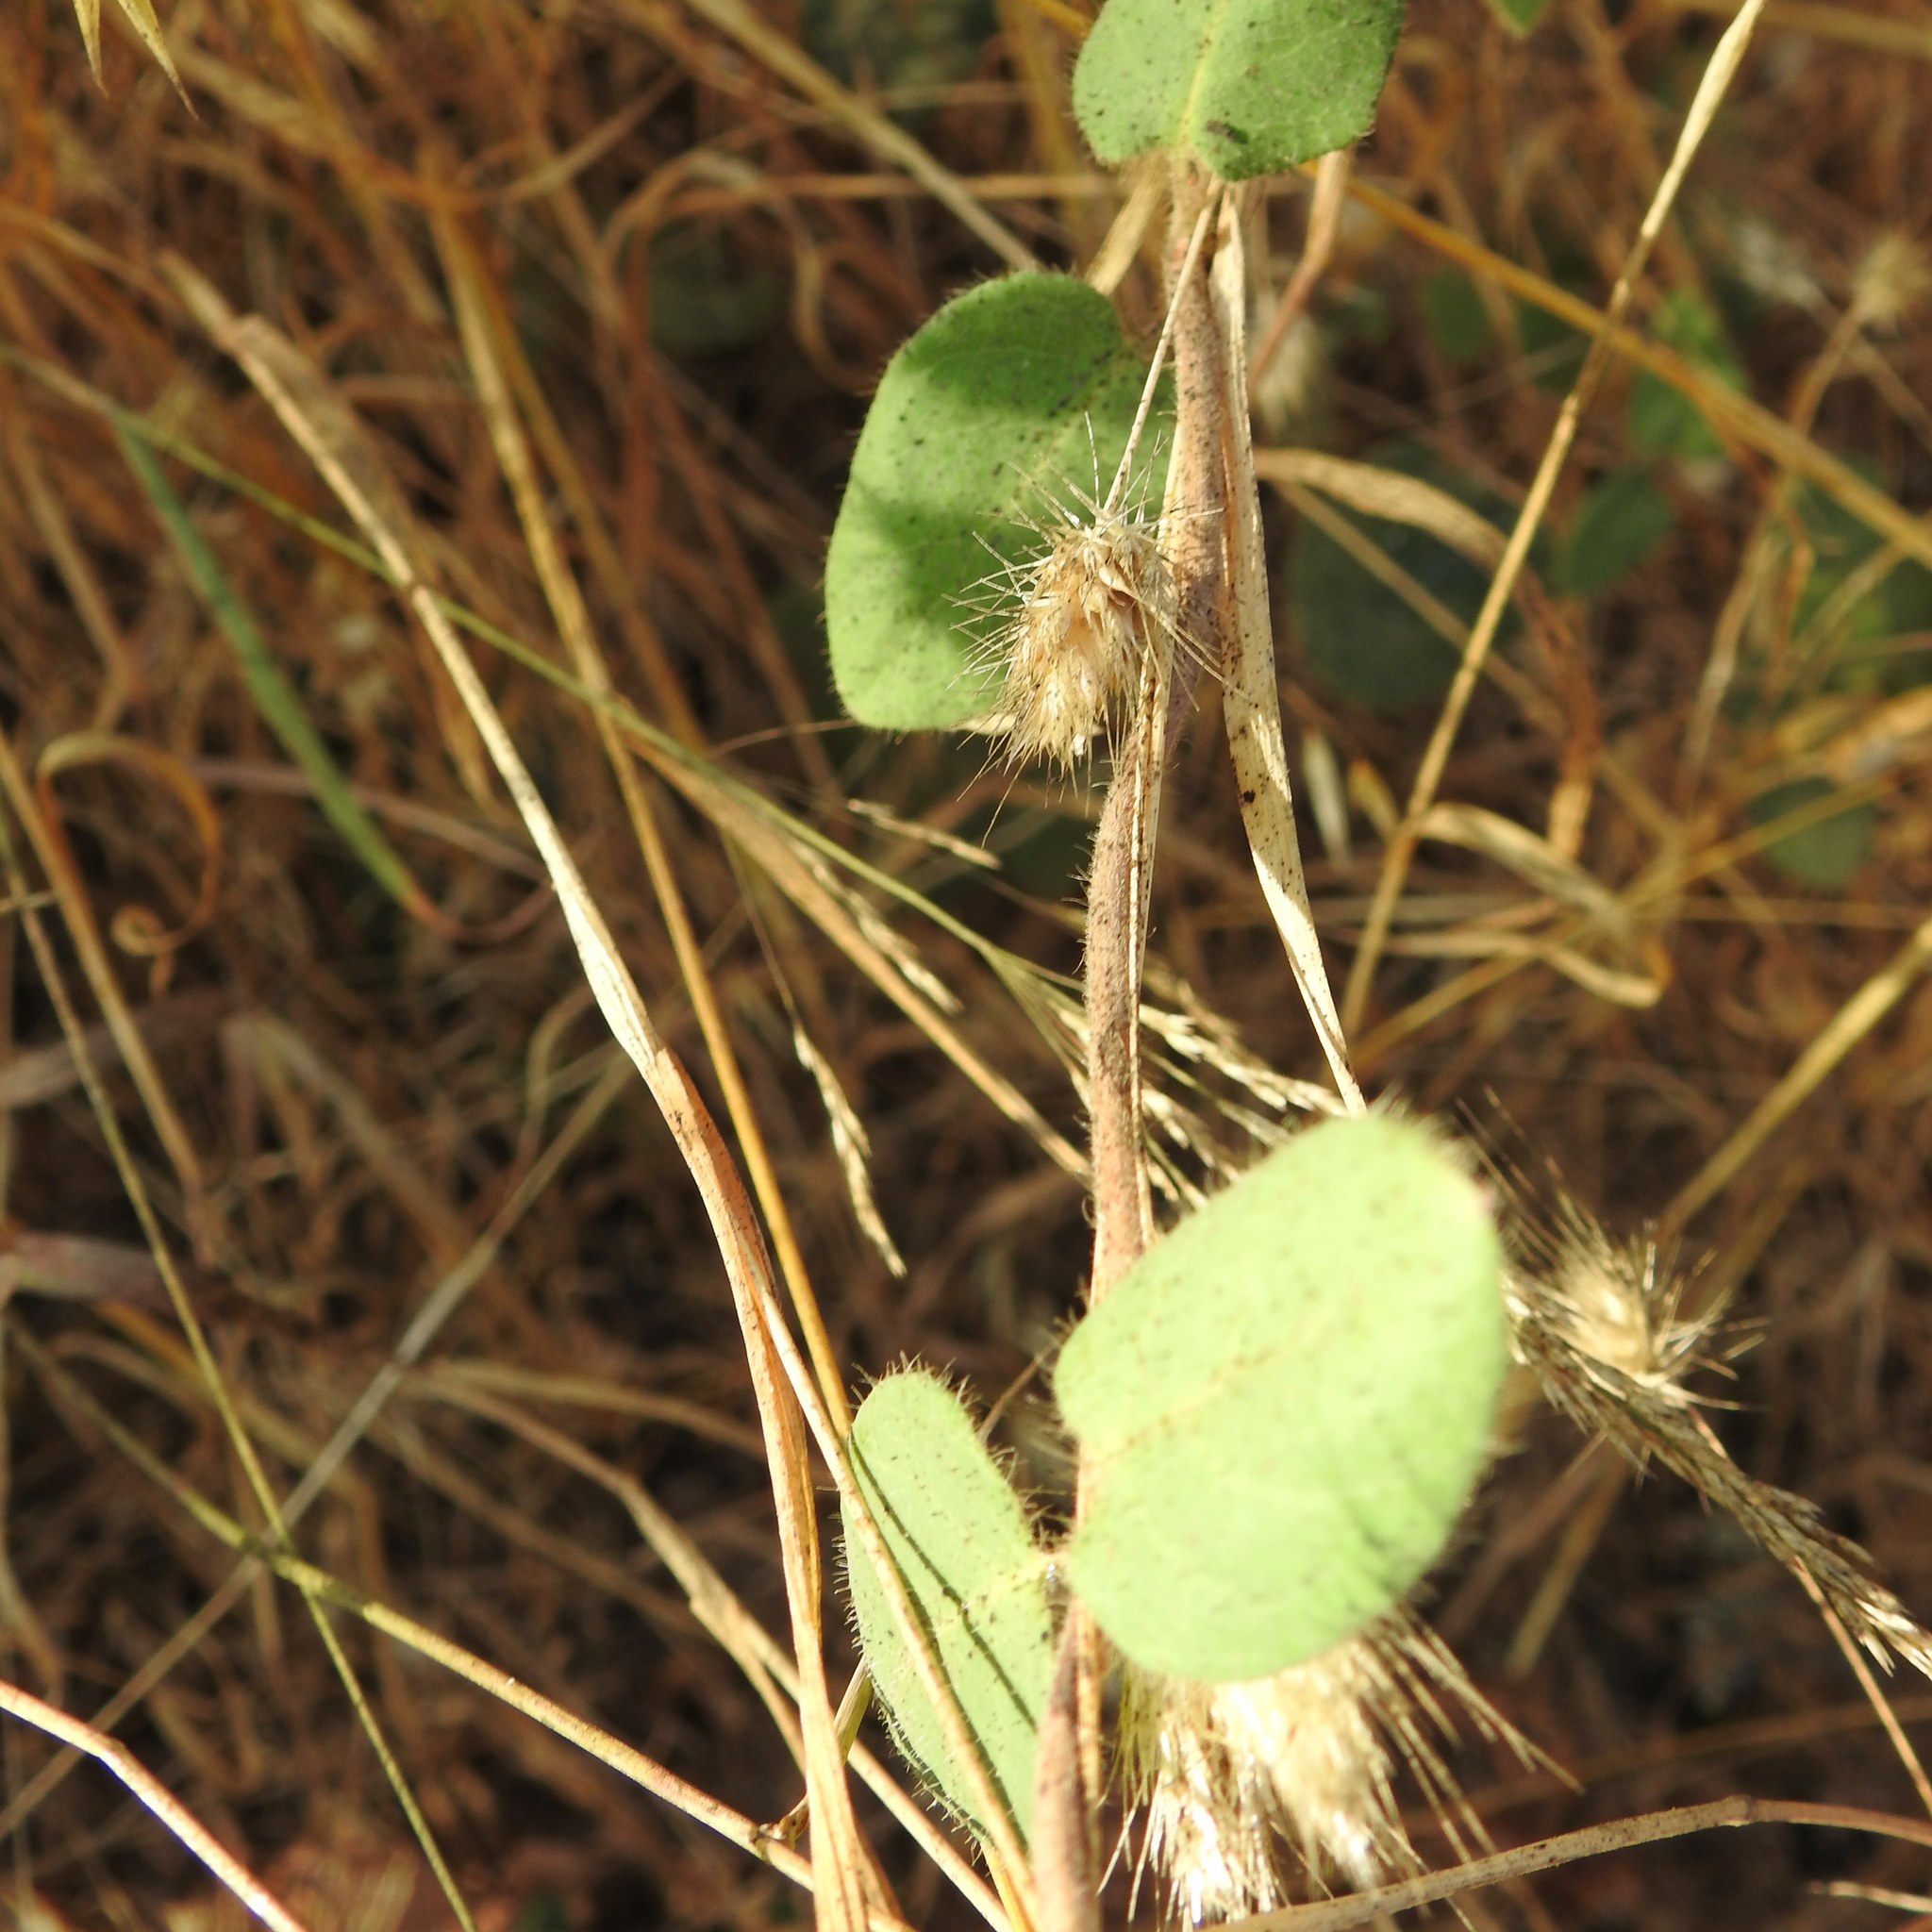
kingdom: Plantae
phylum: Tracheophyta
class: Magnoliopsida
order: Dipsacales
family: Caprifoliaceae
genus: Lonicera
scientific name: Lonicera hispidula
